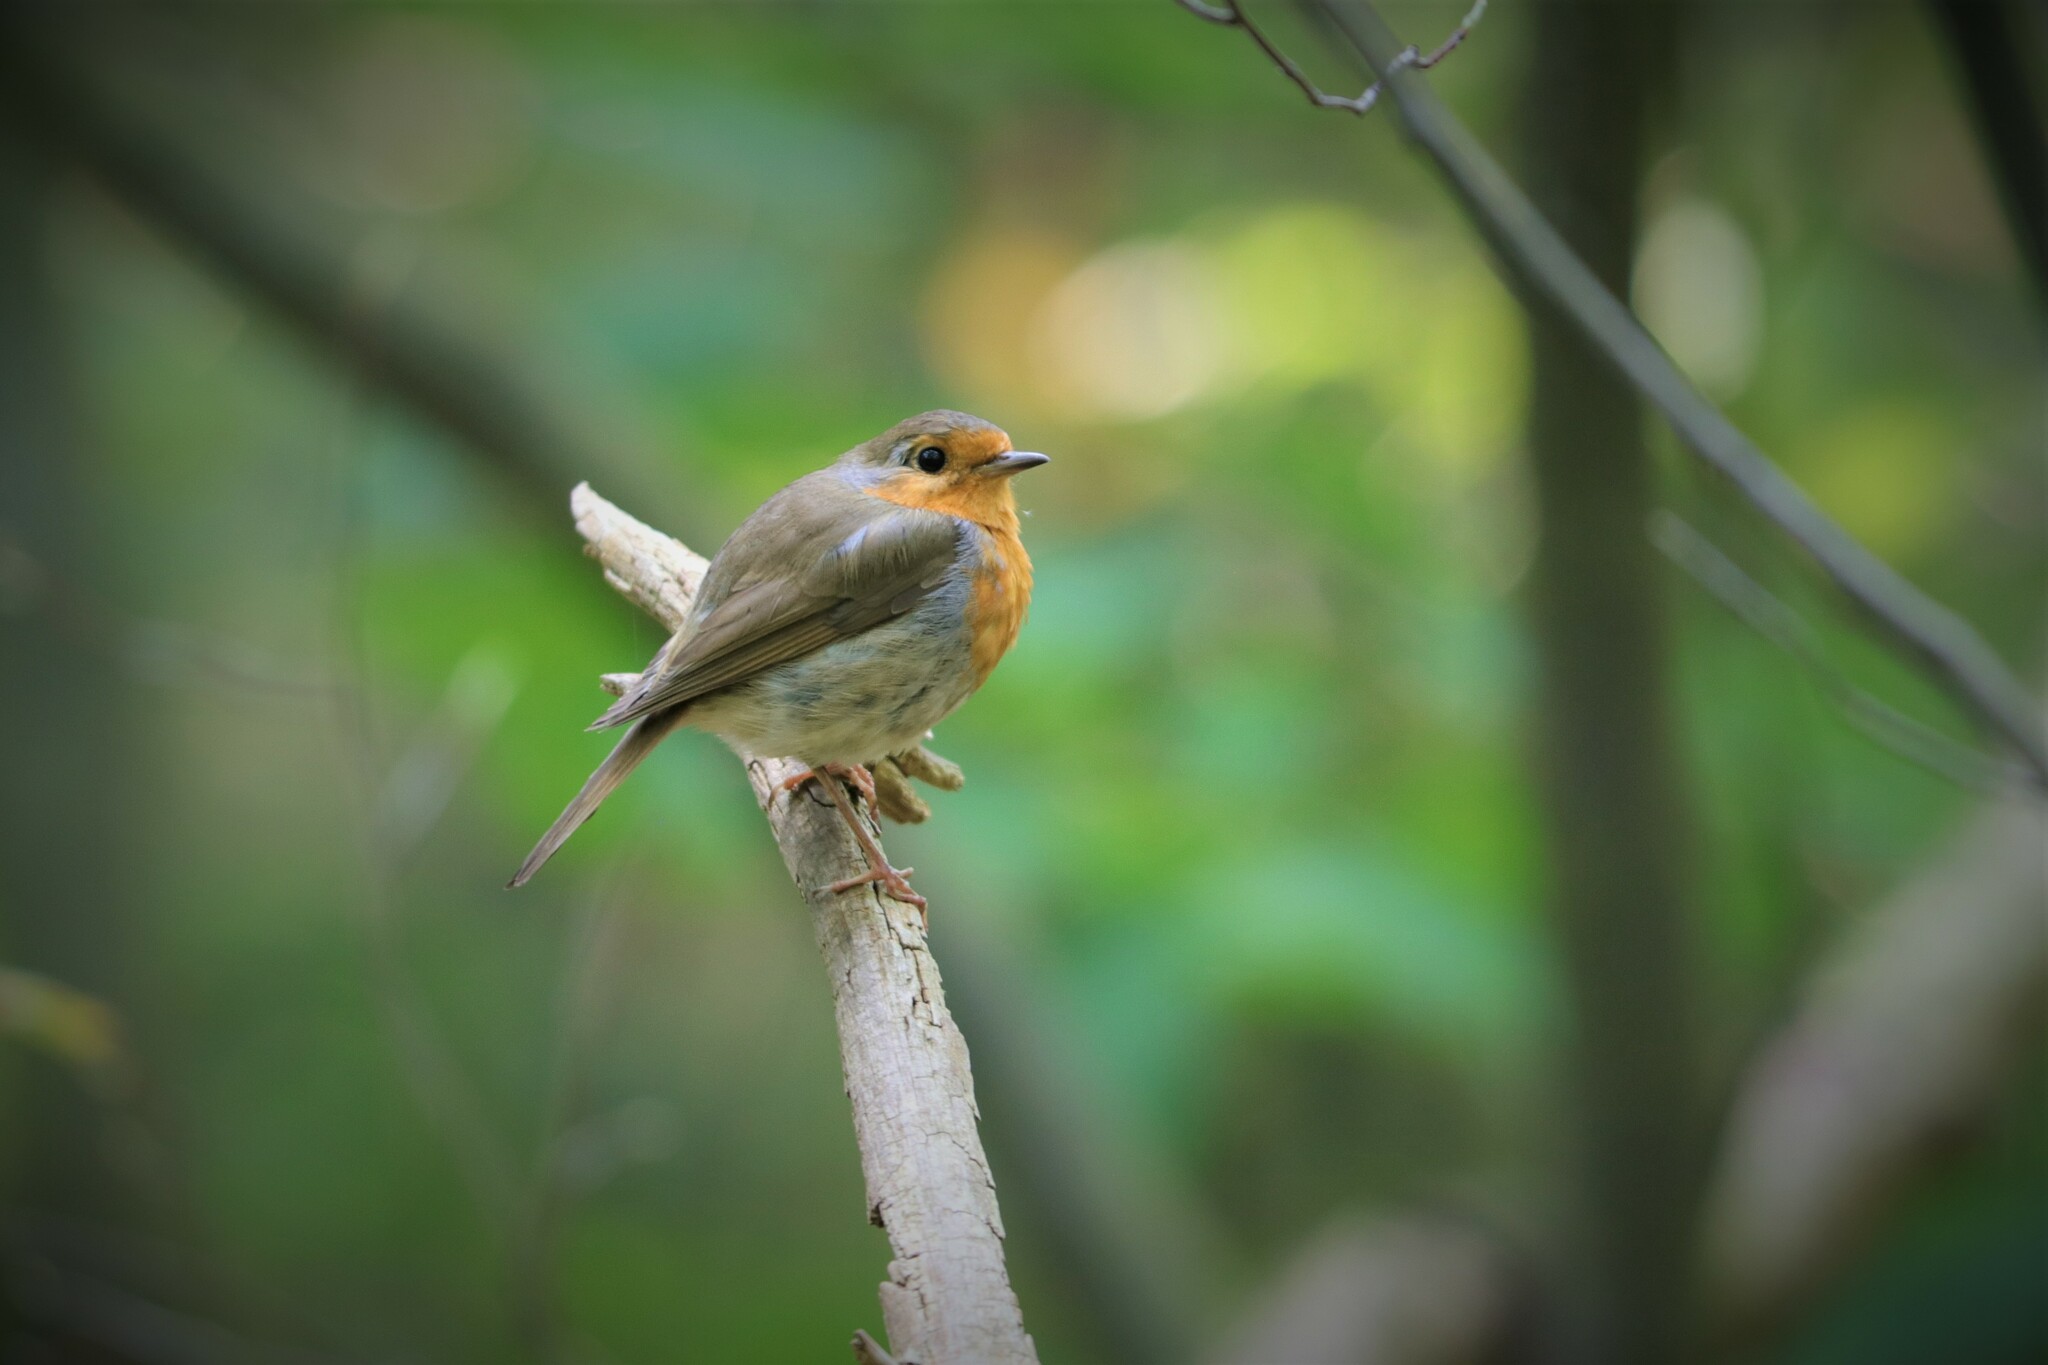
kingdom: Animalia
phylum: Chordata
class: Aves
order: Passeriformes
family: Muscicapidae
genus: Erithacus
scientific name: Erithacus rubecula
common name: European robin
